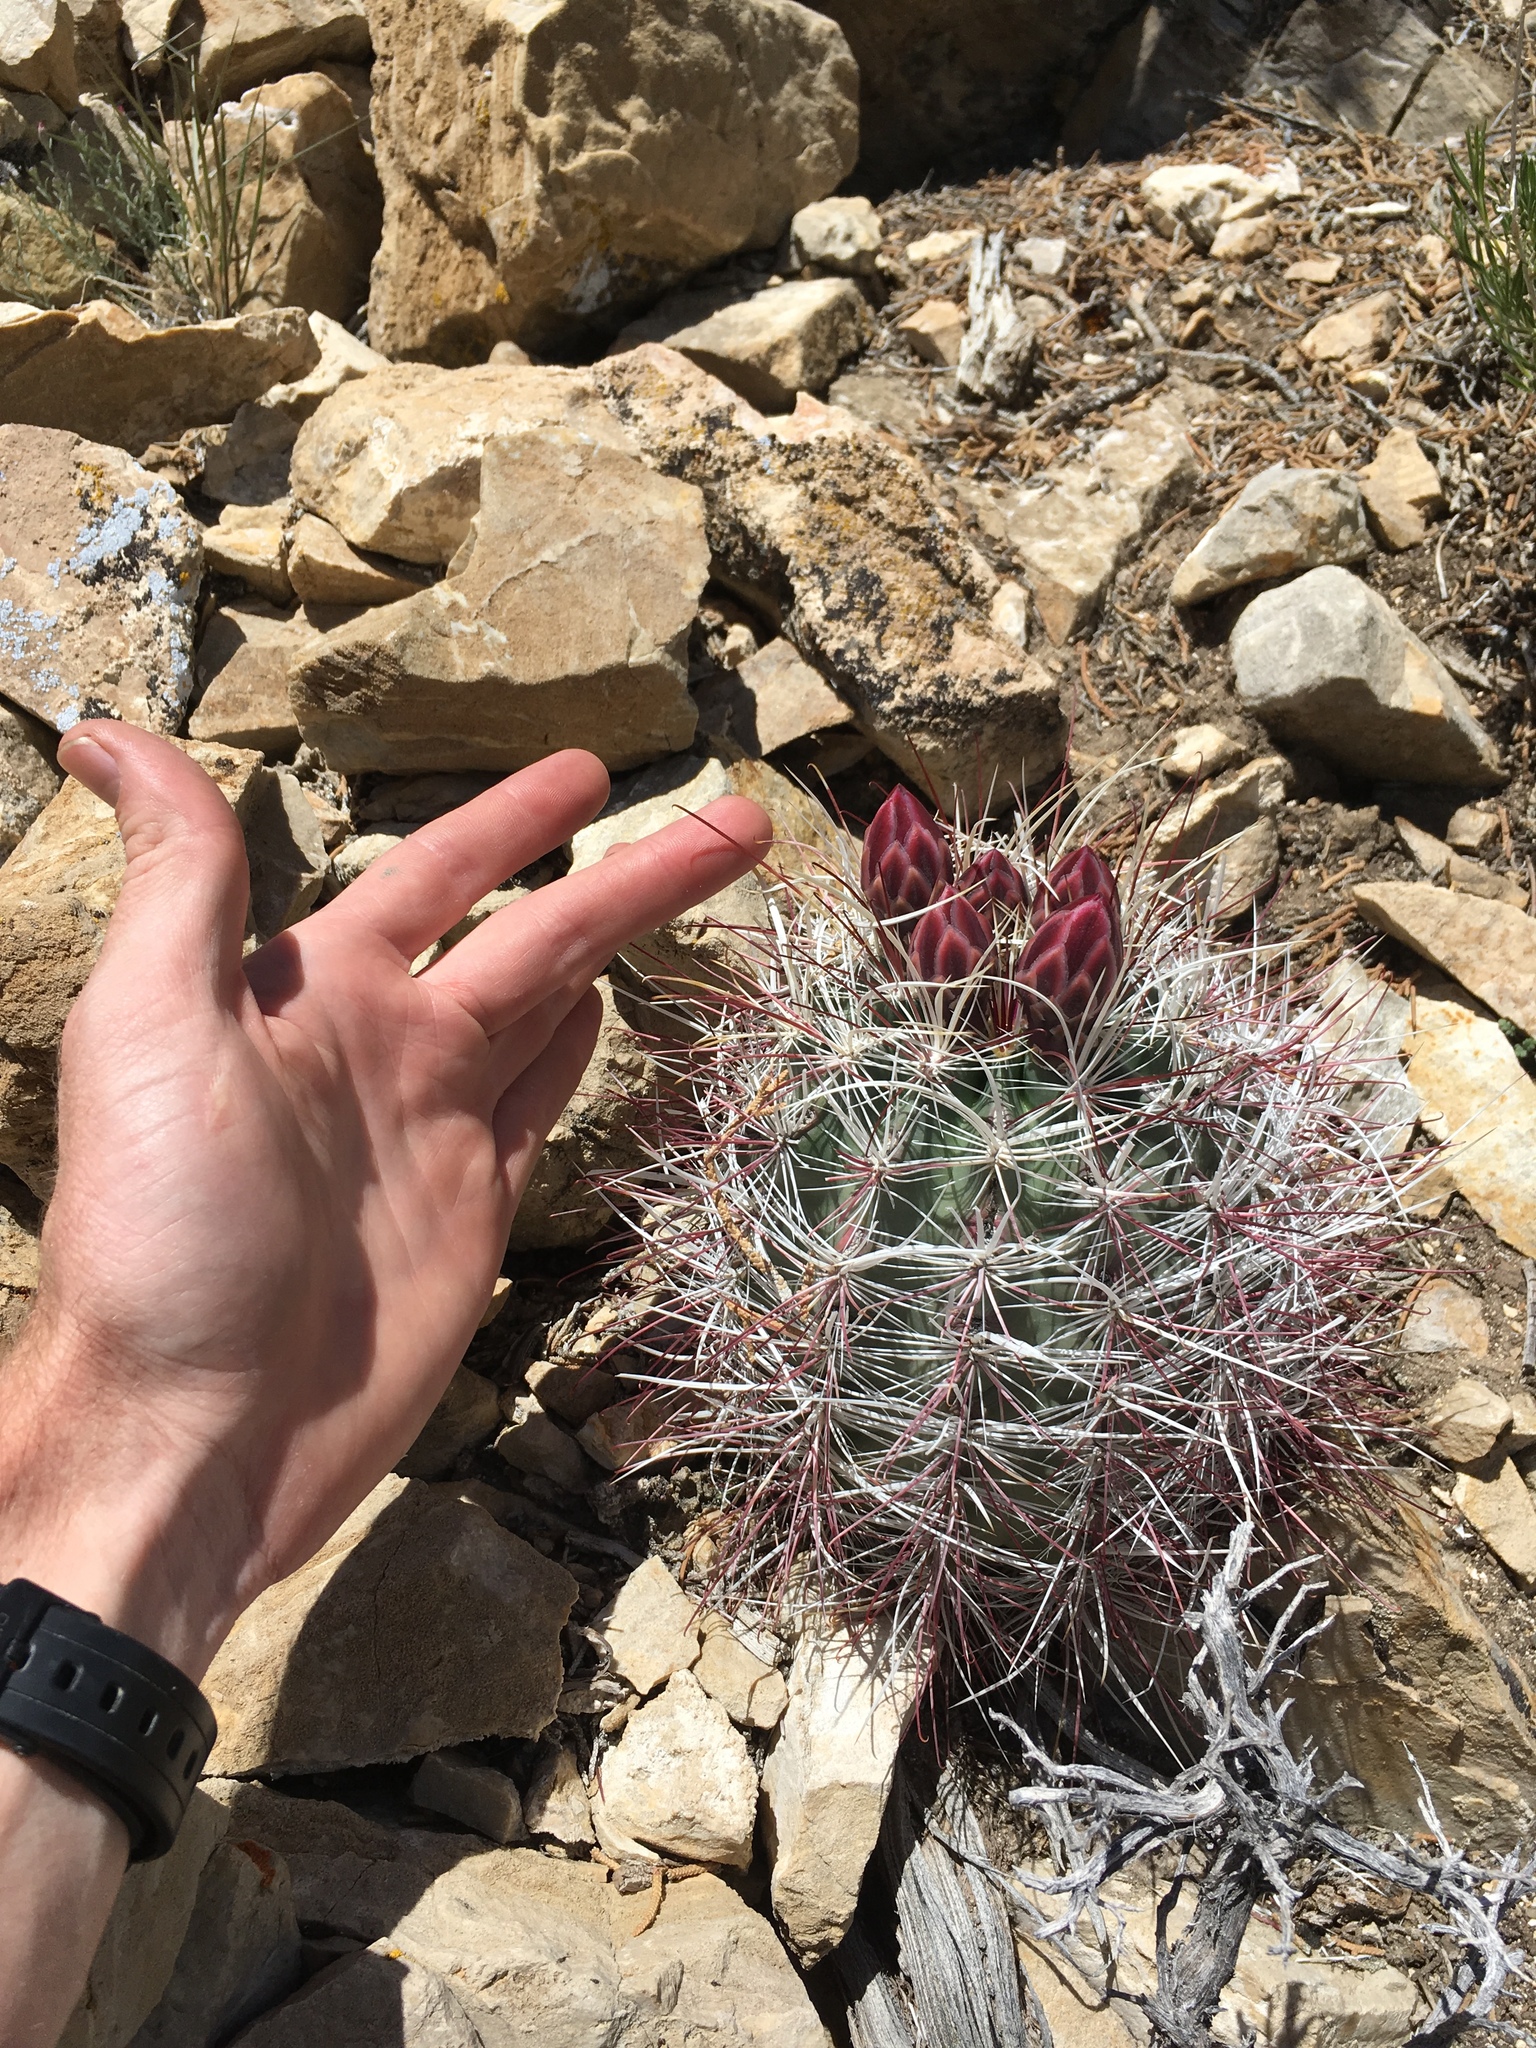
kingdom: Plantae
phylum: Tracheophyta
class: Magnoliopsida
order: Caryophyllales
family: Cactaceae
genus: Sclerocactus
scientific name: Sclerocactus polyancistrus
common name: Mohave fishhook cactus
